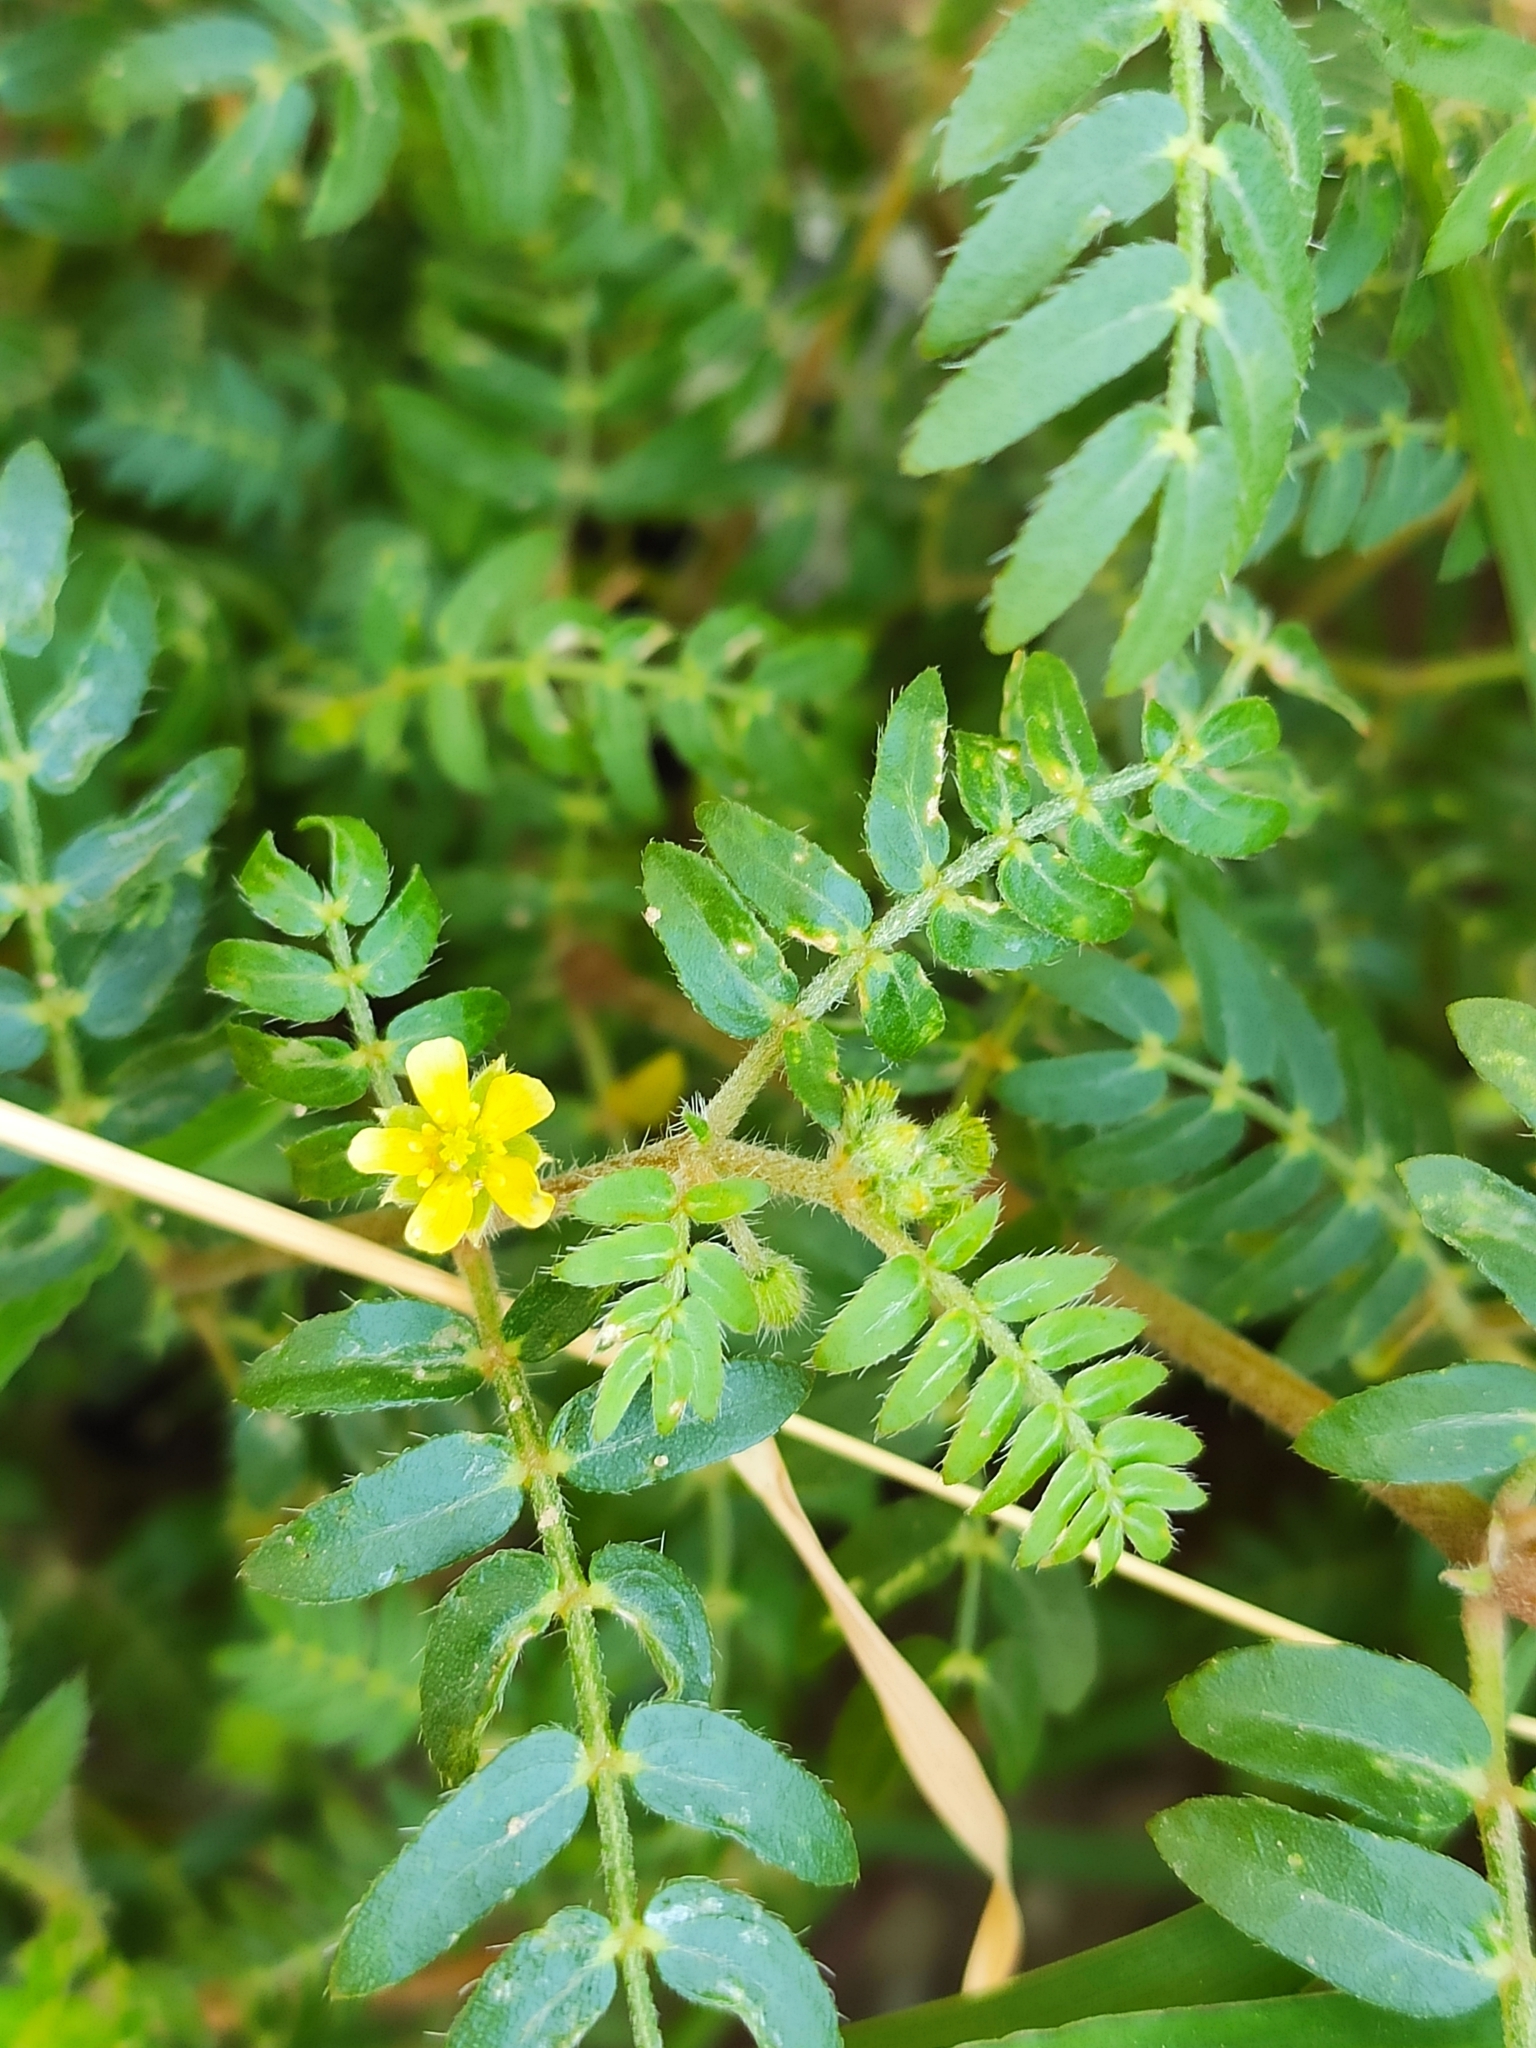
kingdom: Plantae
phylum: Tracheophyta
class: Magnoliopsida
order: Zygophyllales
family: Zygophyllaceae
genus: Tribulus
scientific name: Tribulus terrestris
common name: Puncturevine
